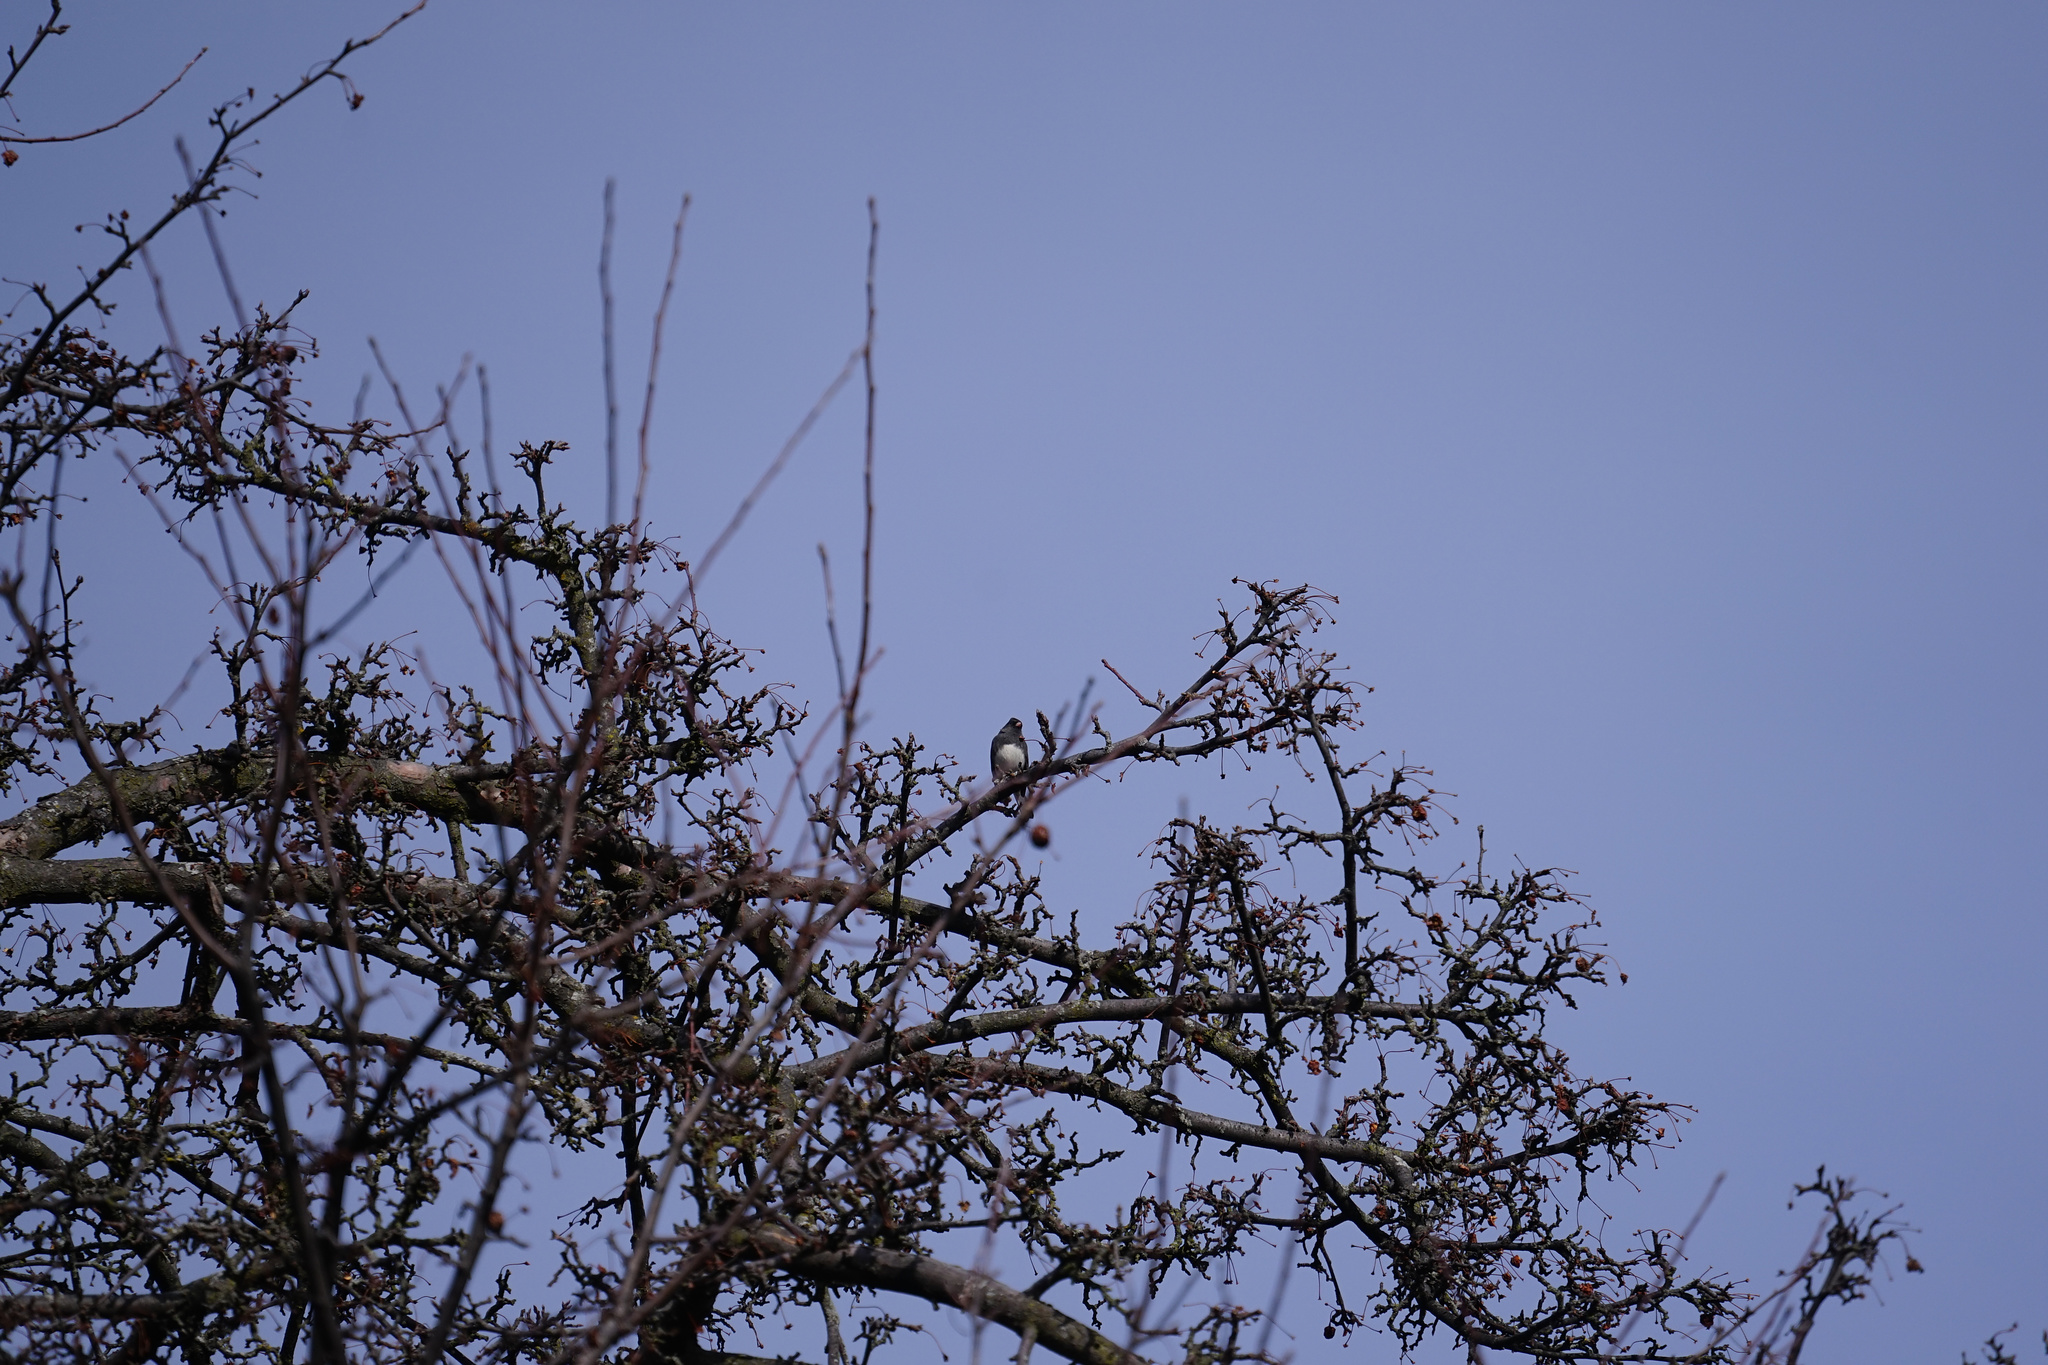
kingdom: Animalia
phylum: Chordata
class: Aves
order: Passeriformes
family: Passerellidae
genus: Junco
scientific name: Junco hyemalis
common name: Dark-eyed junco
